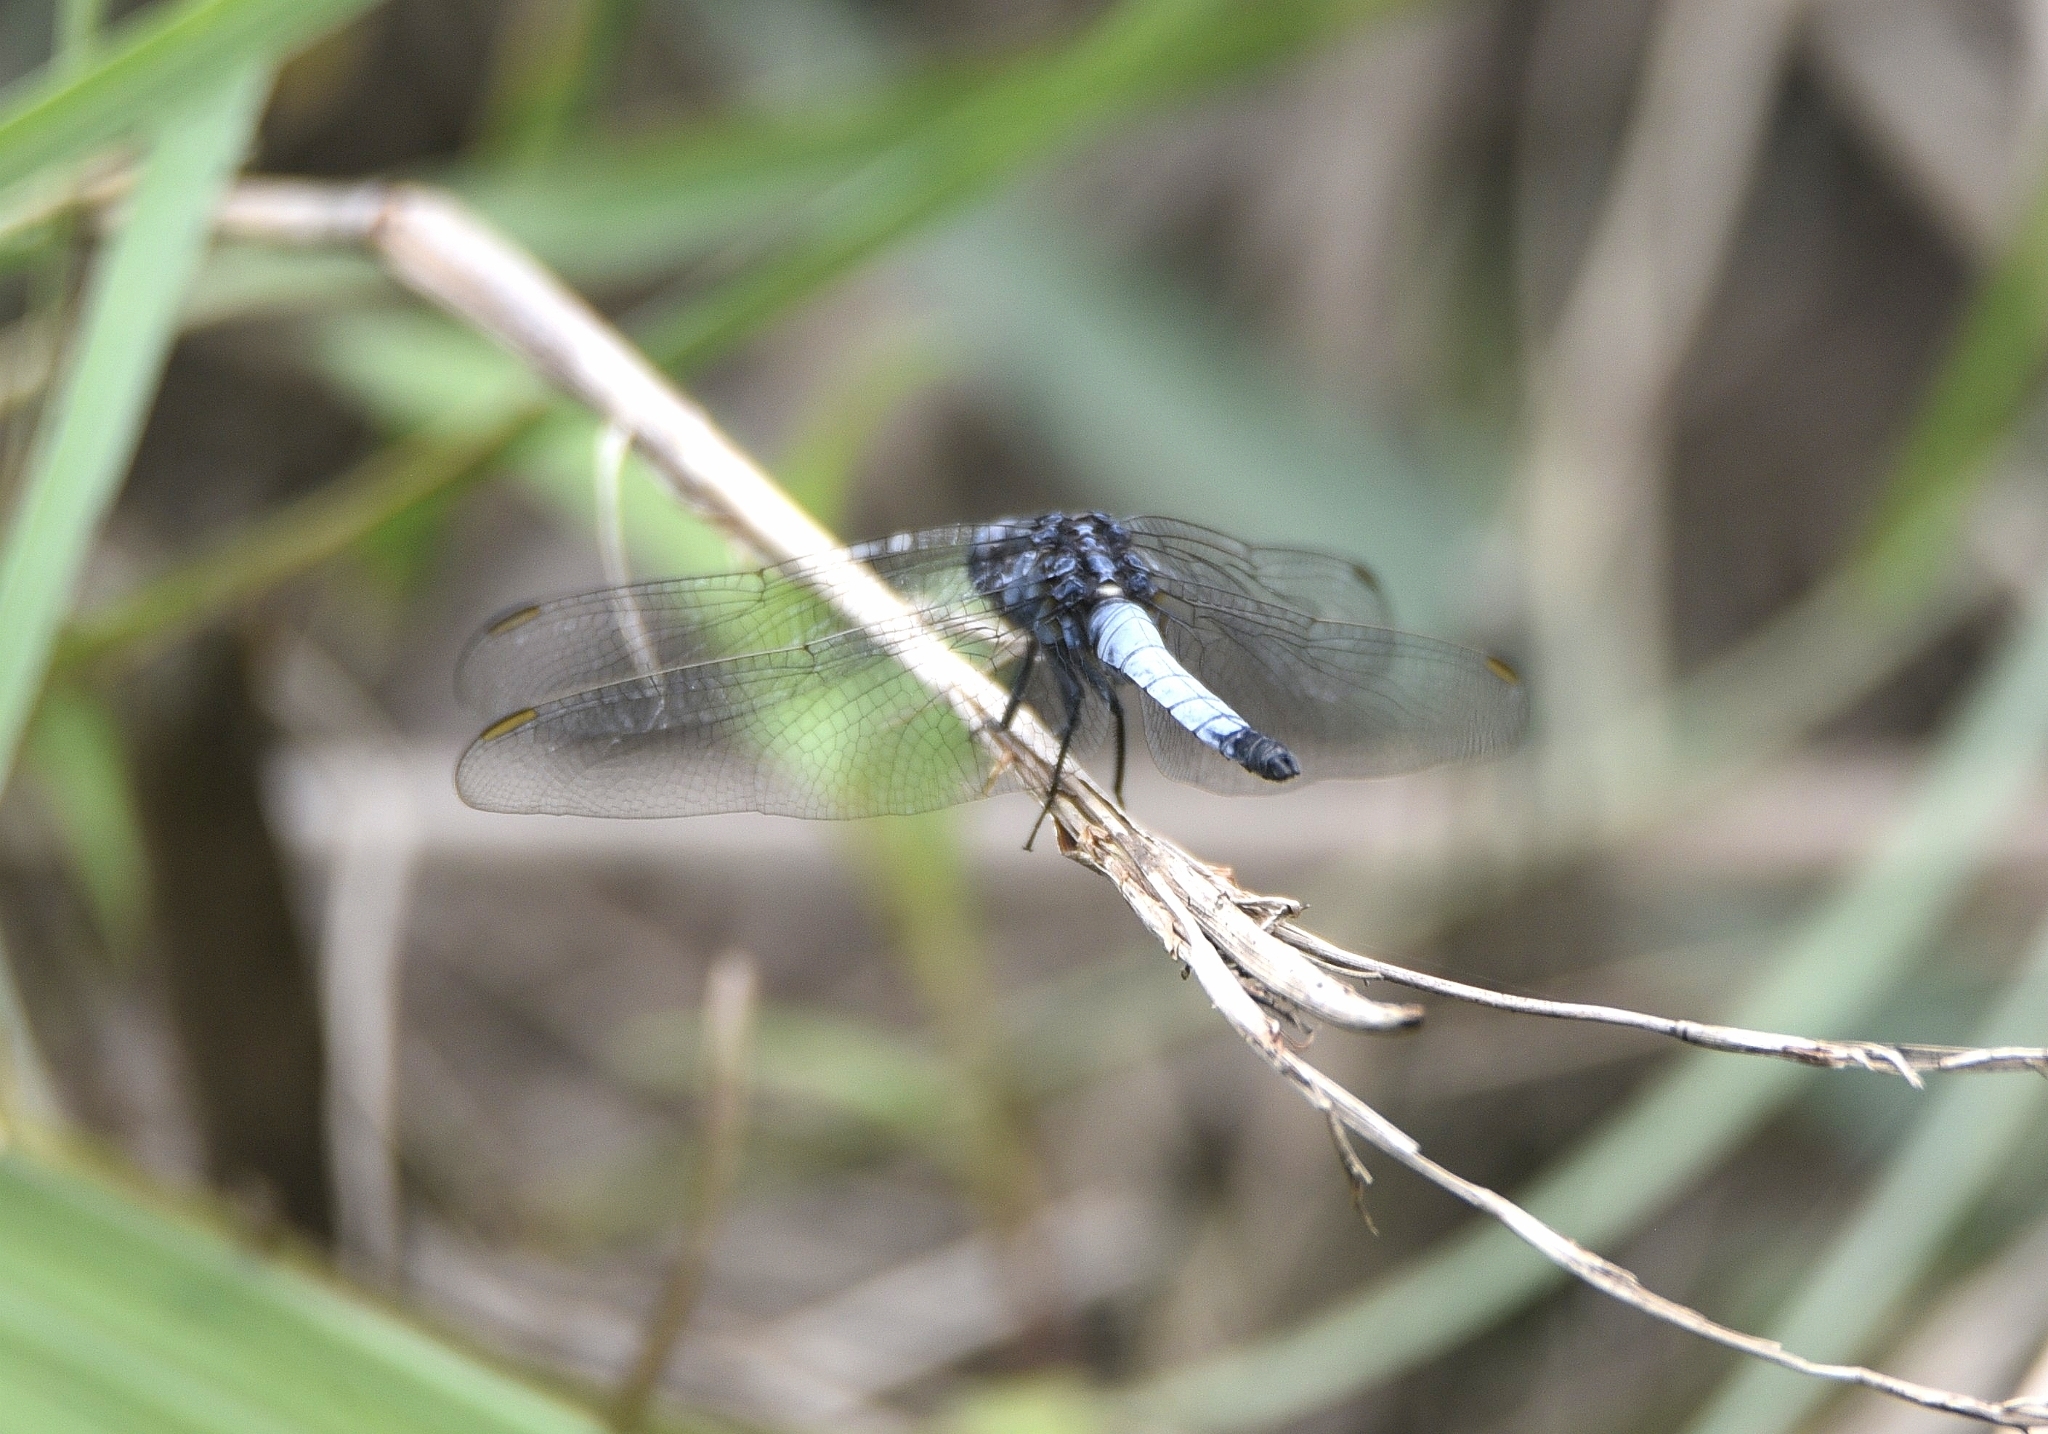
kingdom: Animalia
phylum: Arthropoda
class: Insecta
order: Odonata
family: Libellulidae
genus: Orthetrum
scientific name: Orthetrum triangulare
